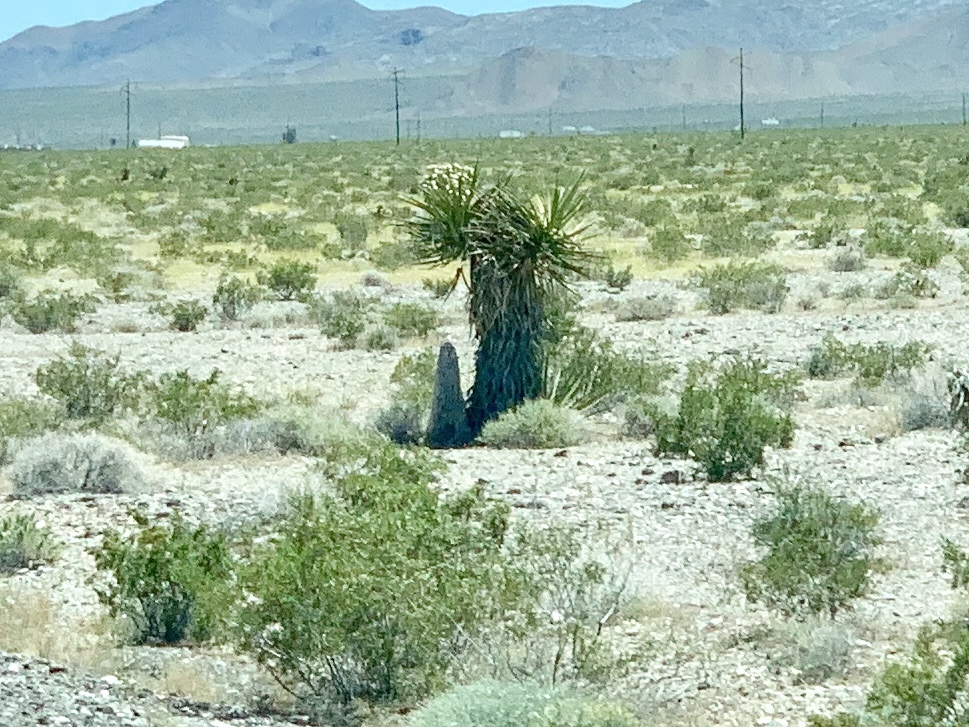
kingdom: Plantae
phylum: Tracheophyta
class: Liliopsida
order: Asparagales
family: Asparagaceae
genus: Yucca
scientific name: Yucca schidigera
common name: Mojave yucca
